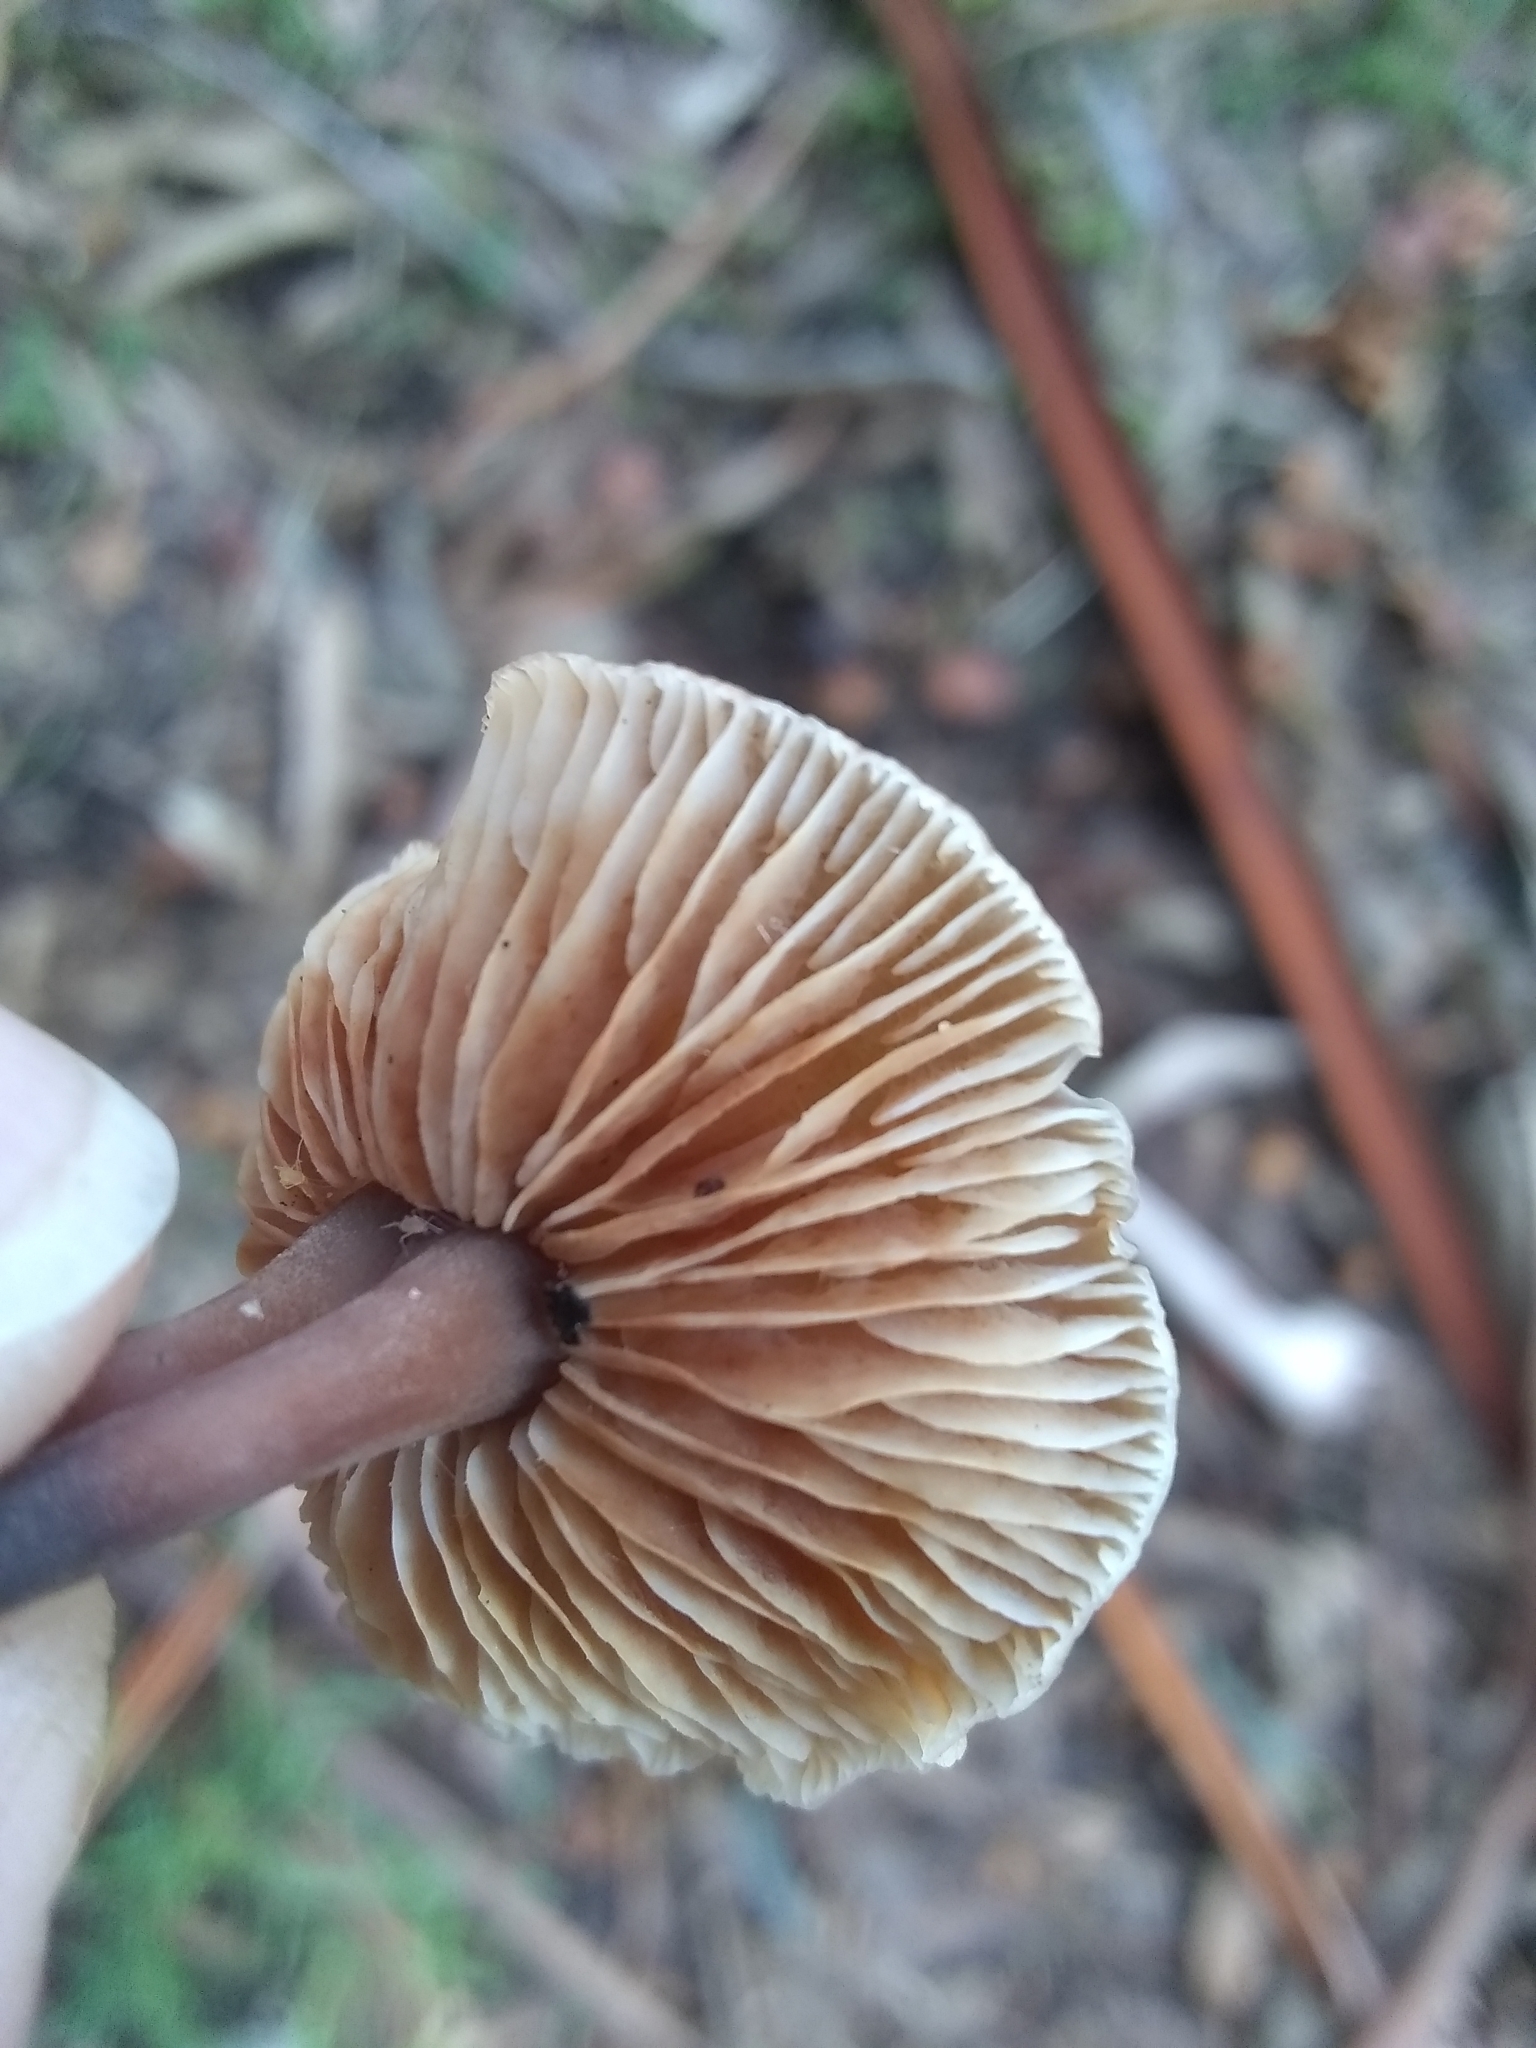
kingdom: Fungi
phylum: Basidiomycota
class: Agaricomycetes
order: Agaricales
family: Omphalotaceae
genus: Gymnopus
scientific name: Gymnopus brassicolens
